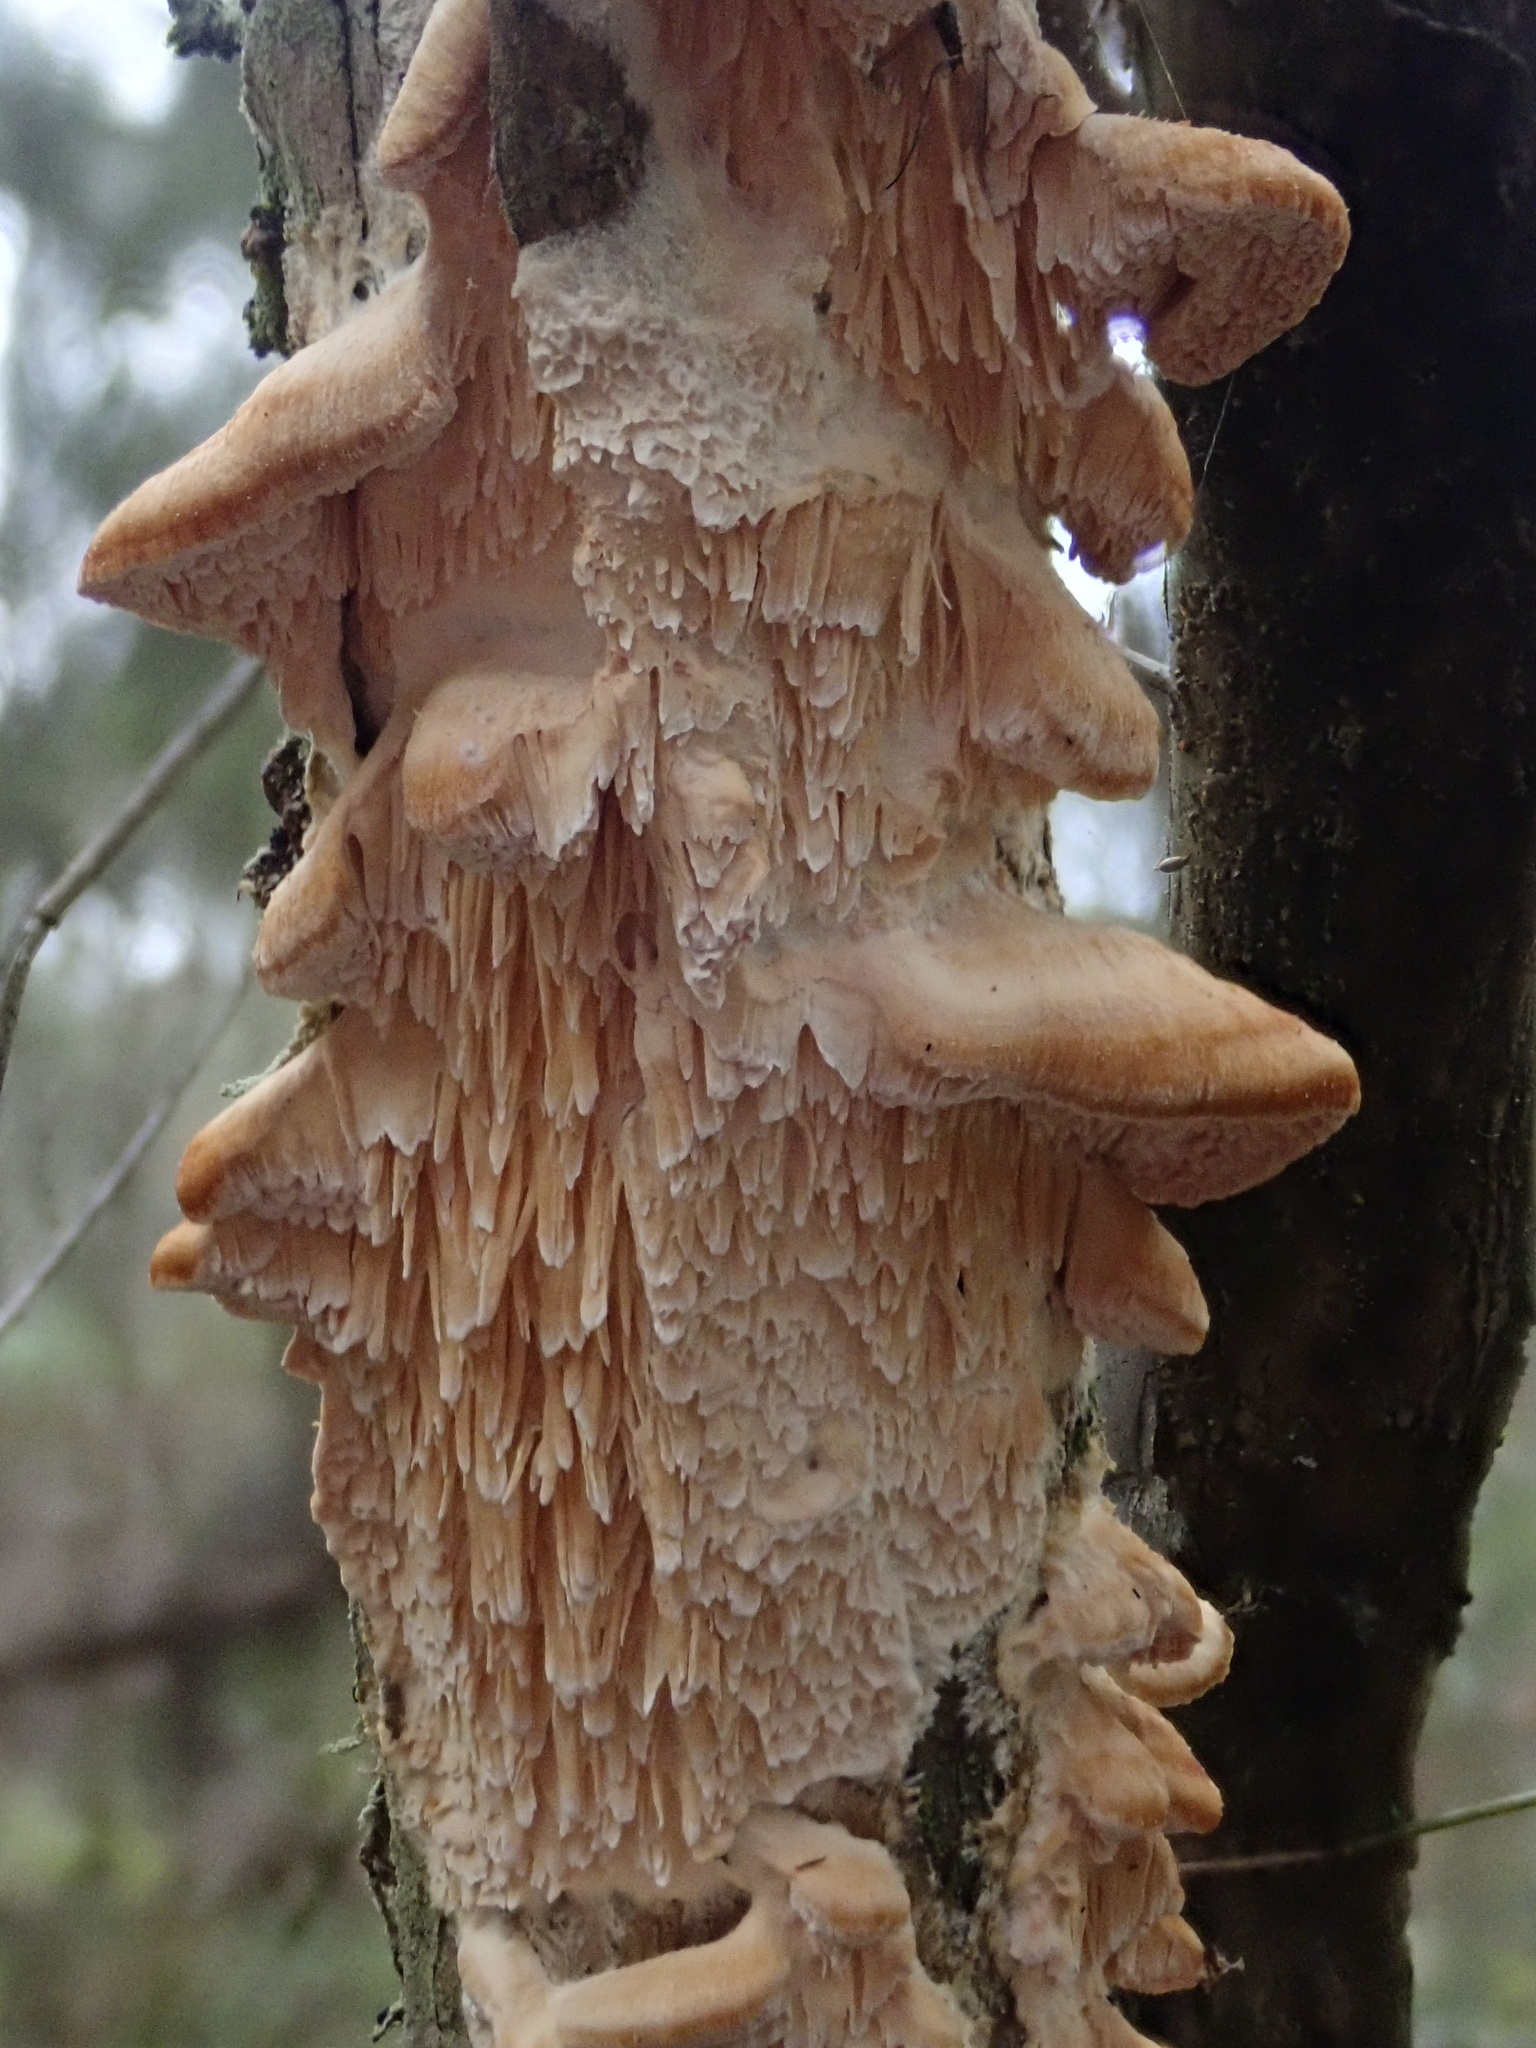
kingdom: Fungi
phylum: Basidiomycota
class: Agaricomycetes
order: Polyporales
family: Cerrenaceae
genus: Cerrena
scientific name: Cerrena zonata
